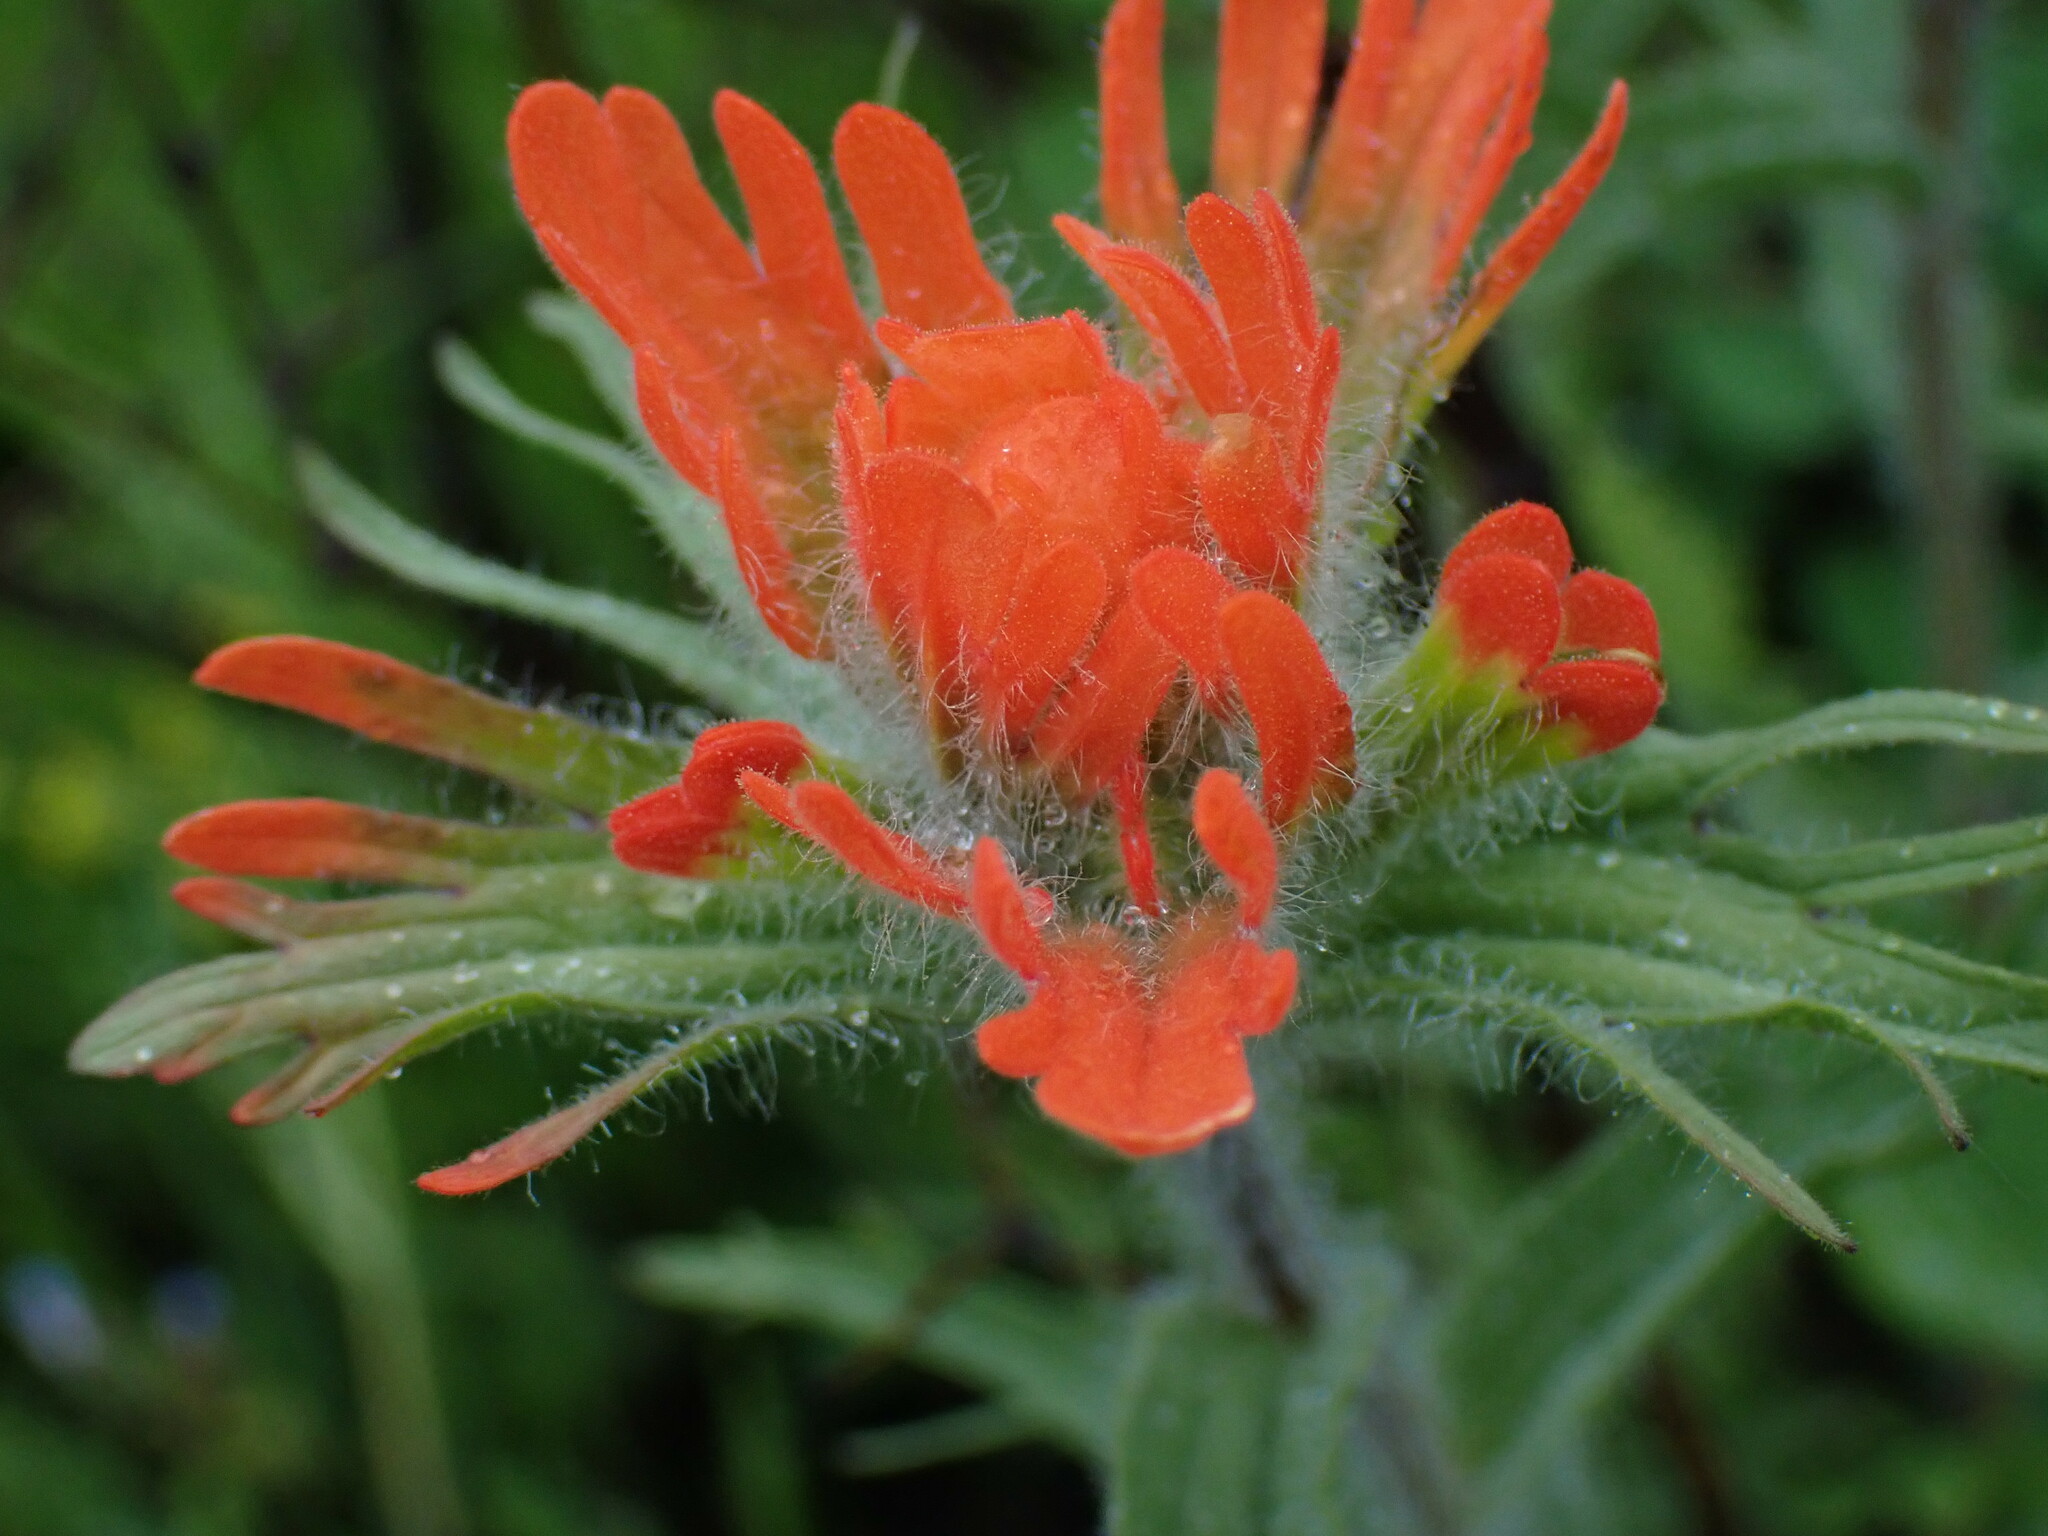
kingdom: Plantae
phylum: Tracheophyta
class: Magnoliopsida
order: Lamiales
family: Orobanchaceae
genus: Castilleja
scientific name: Castilleja hispida
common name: Bristly paintbrush
